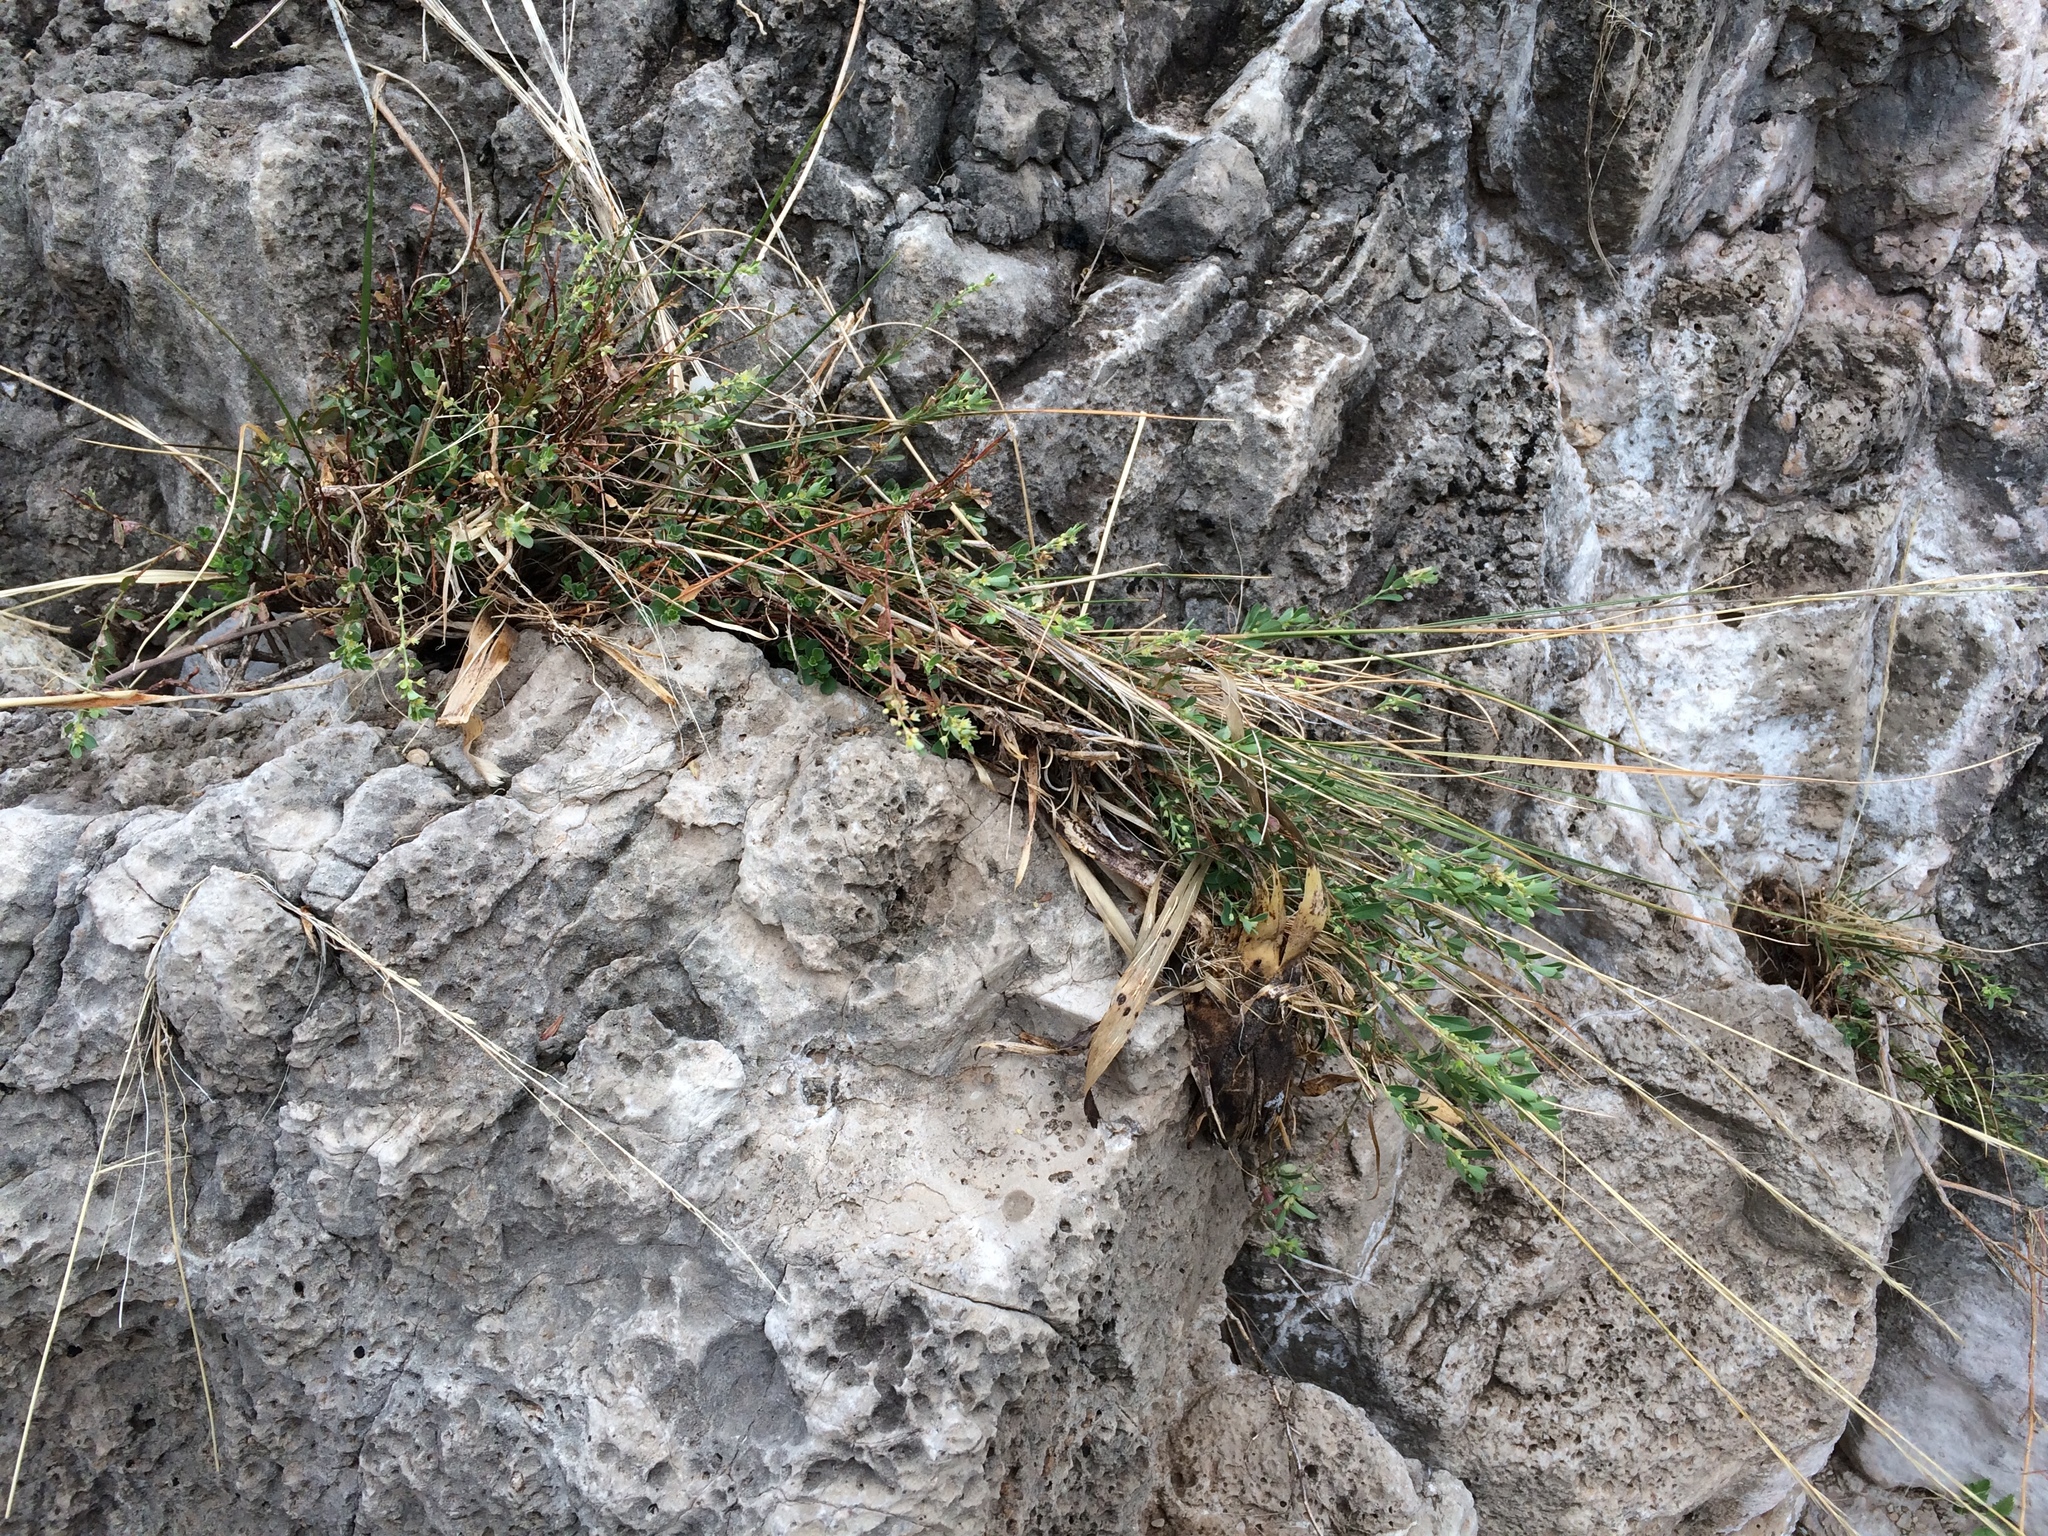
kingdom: Plantae
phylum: Tracheophyta
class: Magnoliopsida
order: Malpighiales
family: Phyllanthaceae
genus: Phyllanthus
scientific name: Phyllanthus polygonoides
